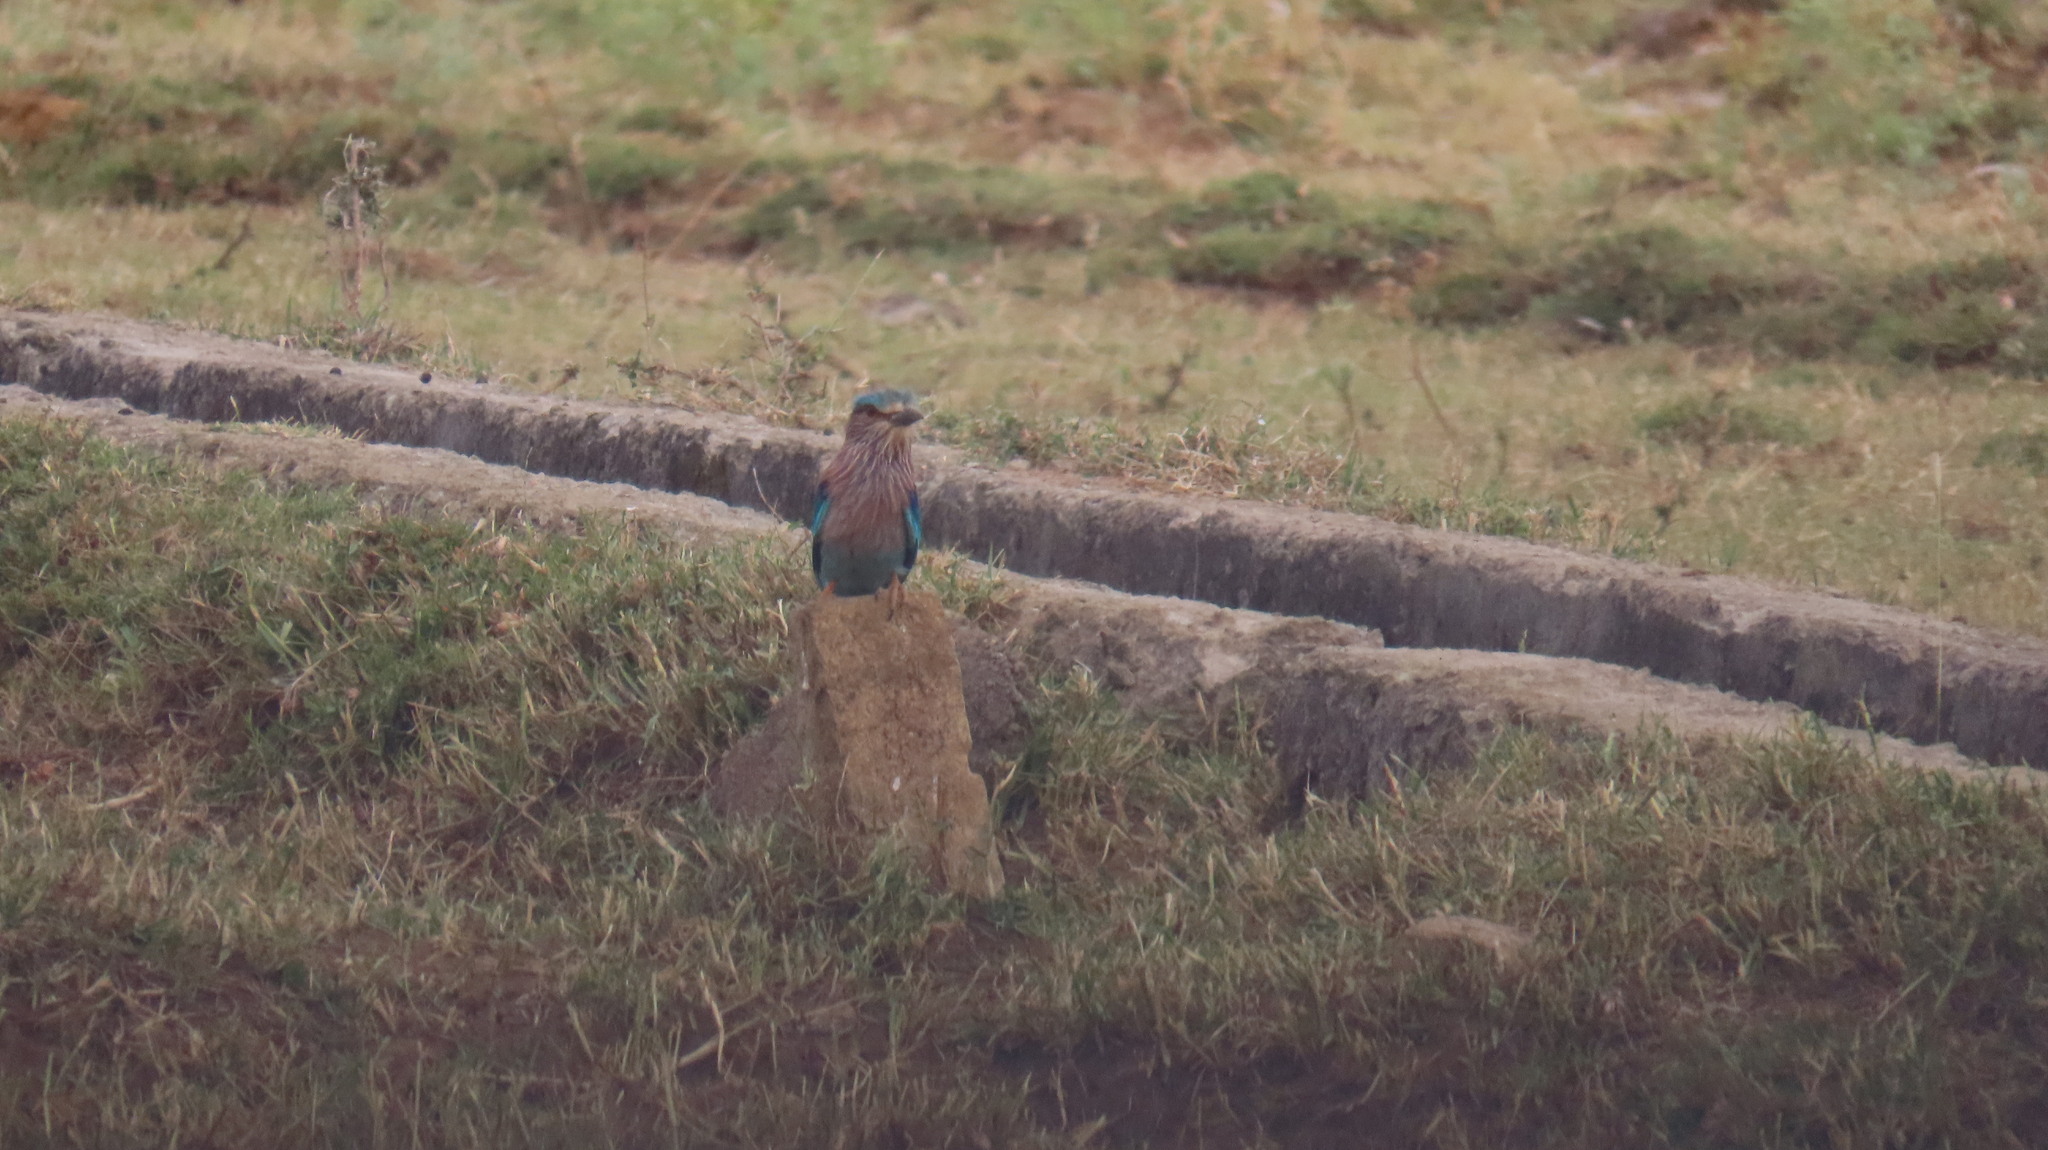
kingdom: Animalia
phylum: Chordata
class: Aves
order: Coraciiformes
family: Coraciidae
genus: Coracias
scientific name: Coracias benghalensis
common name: Indian roller
